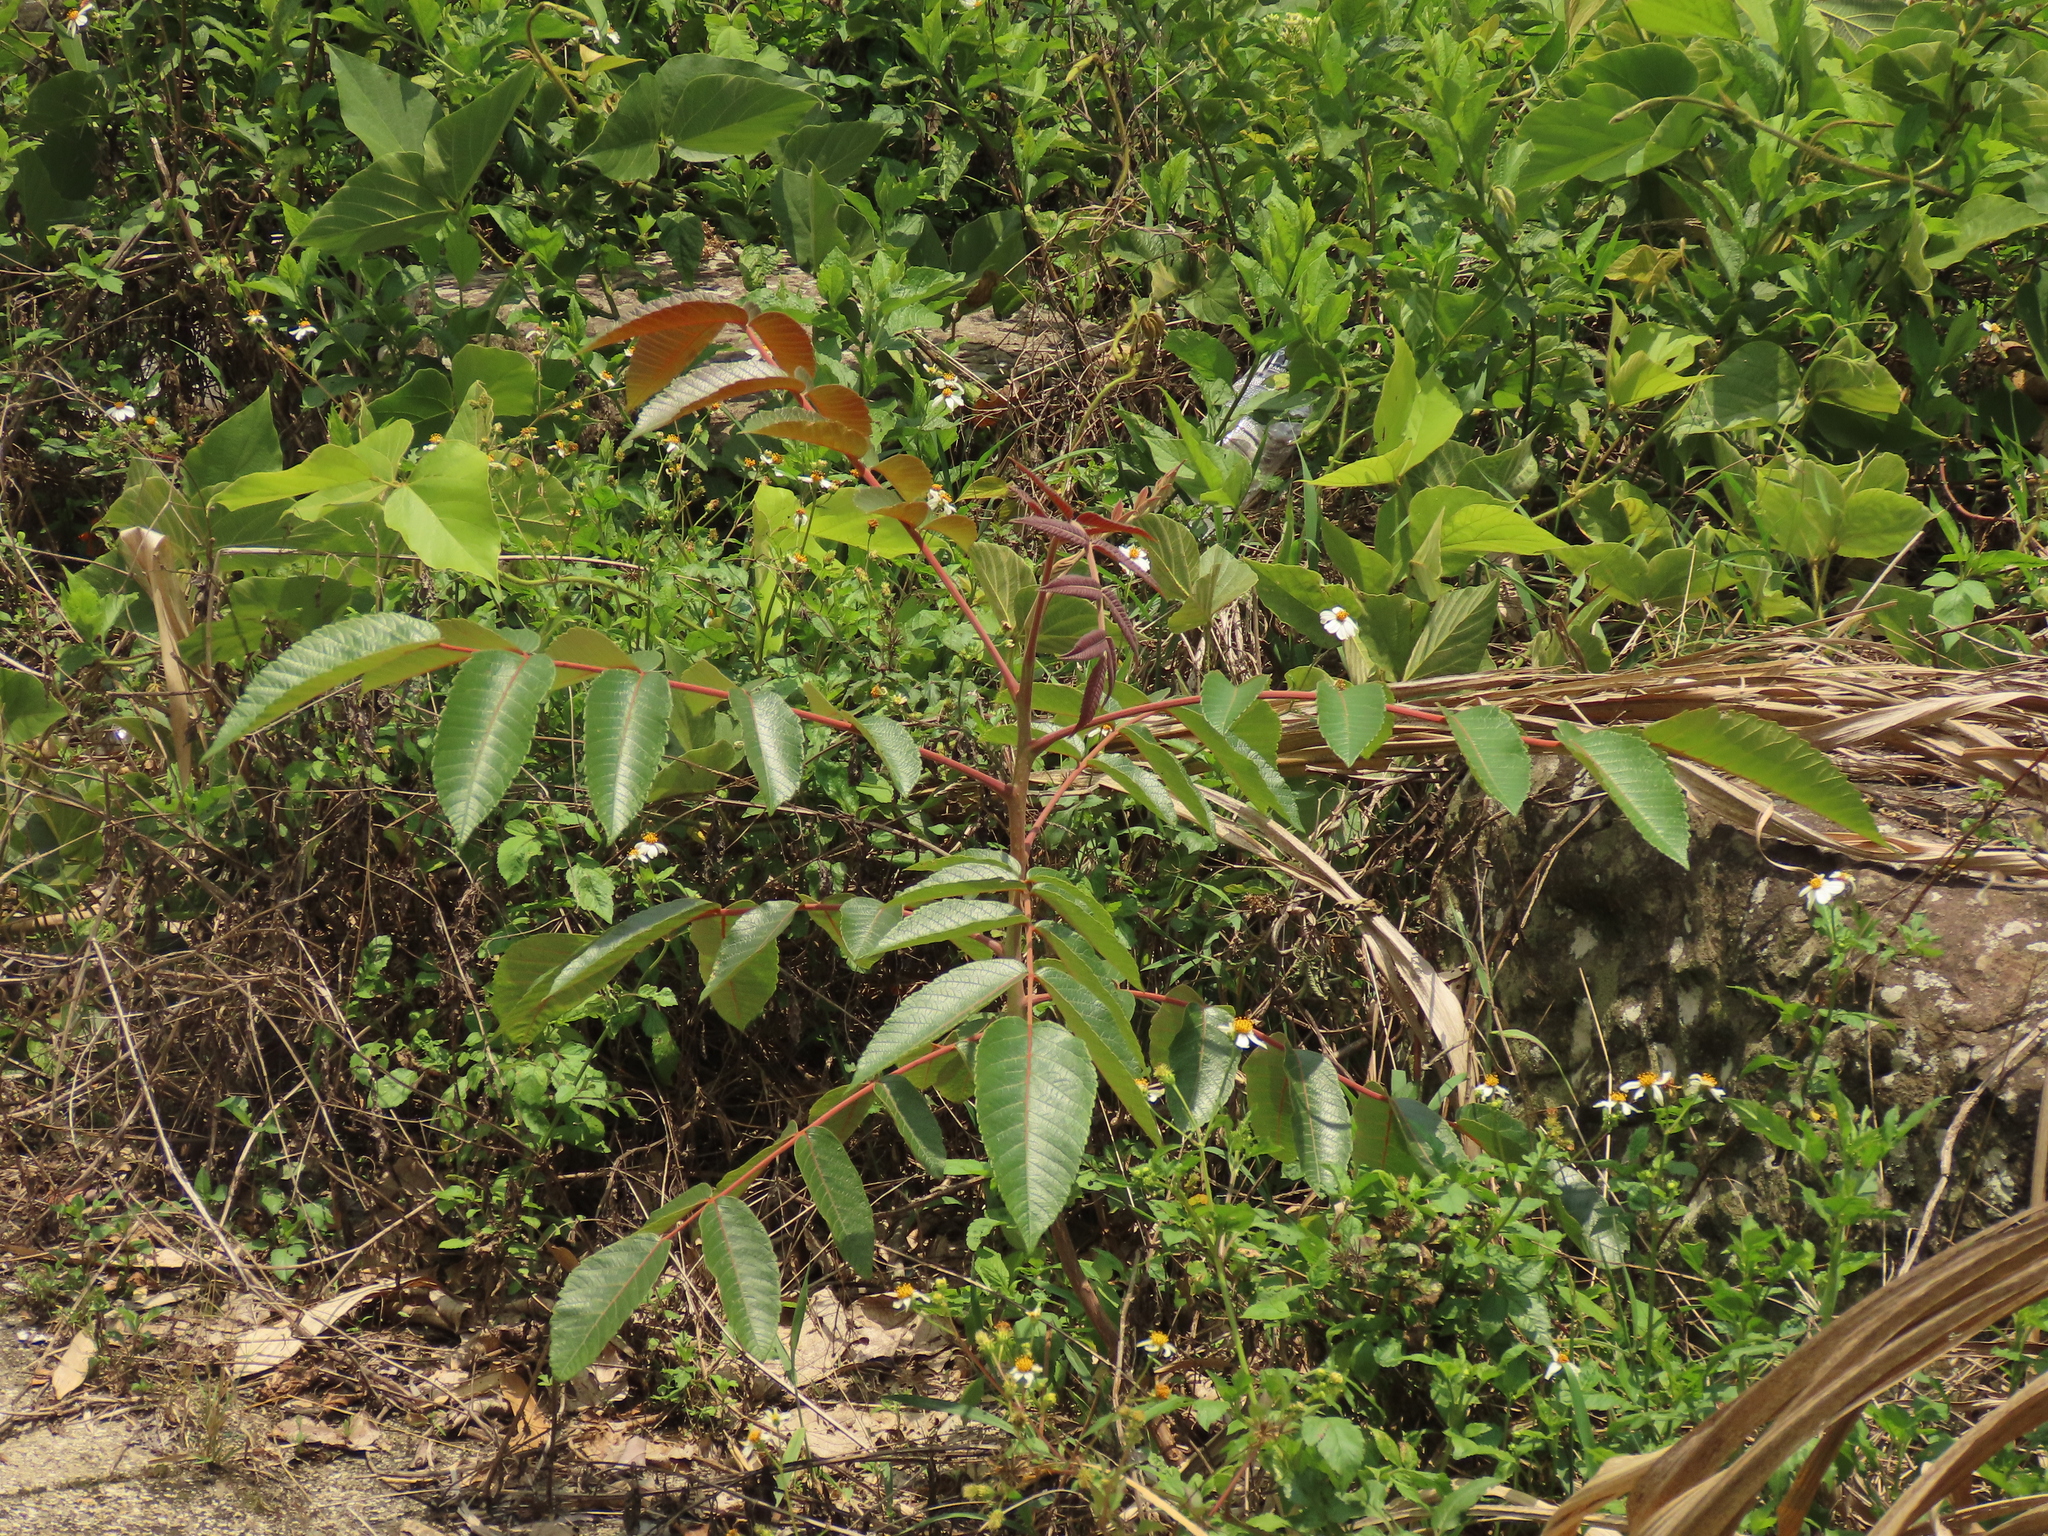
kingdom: Plantae
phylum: Tracheophyta
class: Magnoliopsida
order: Sapindales
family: Anacardiaceae
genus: Rhus
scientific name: Rhus chinensis
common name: Chinese gall
